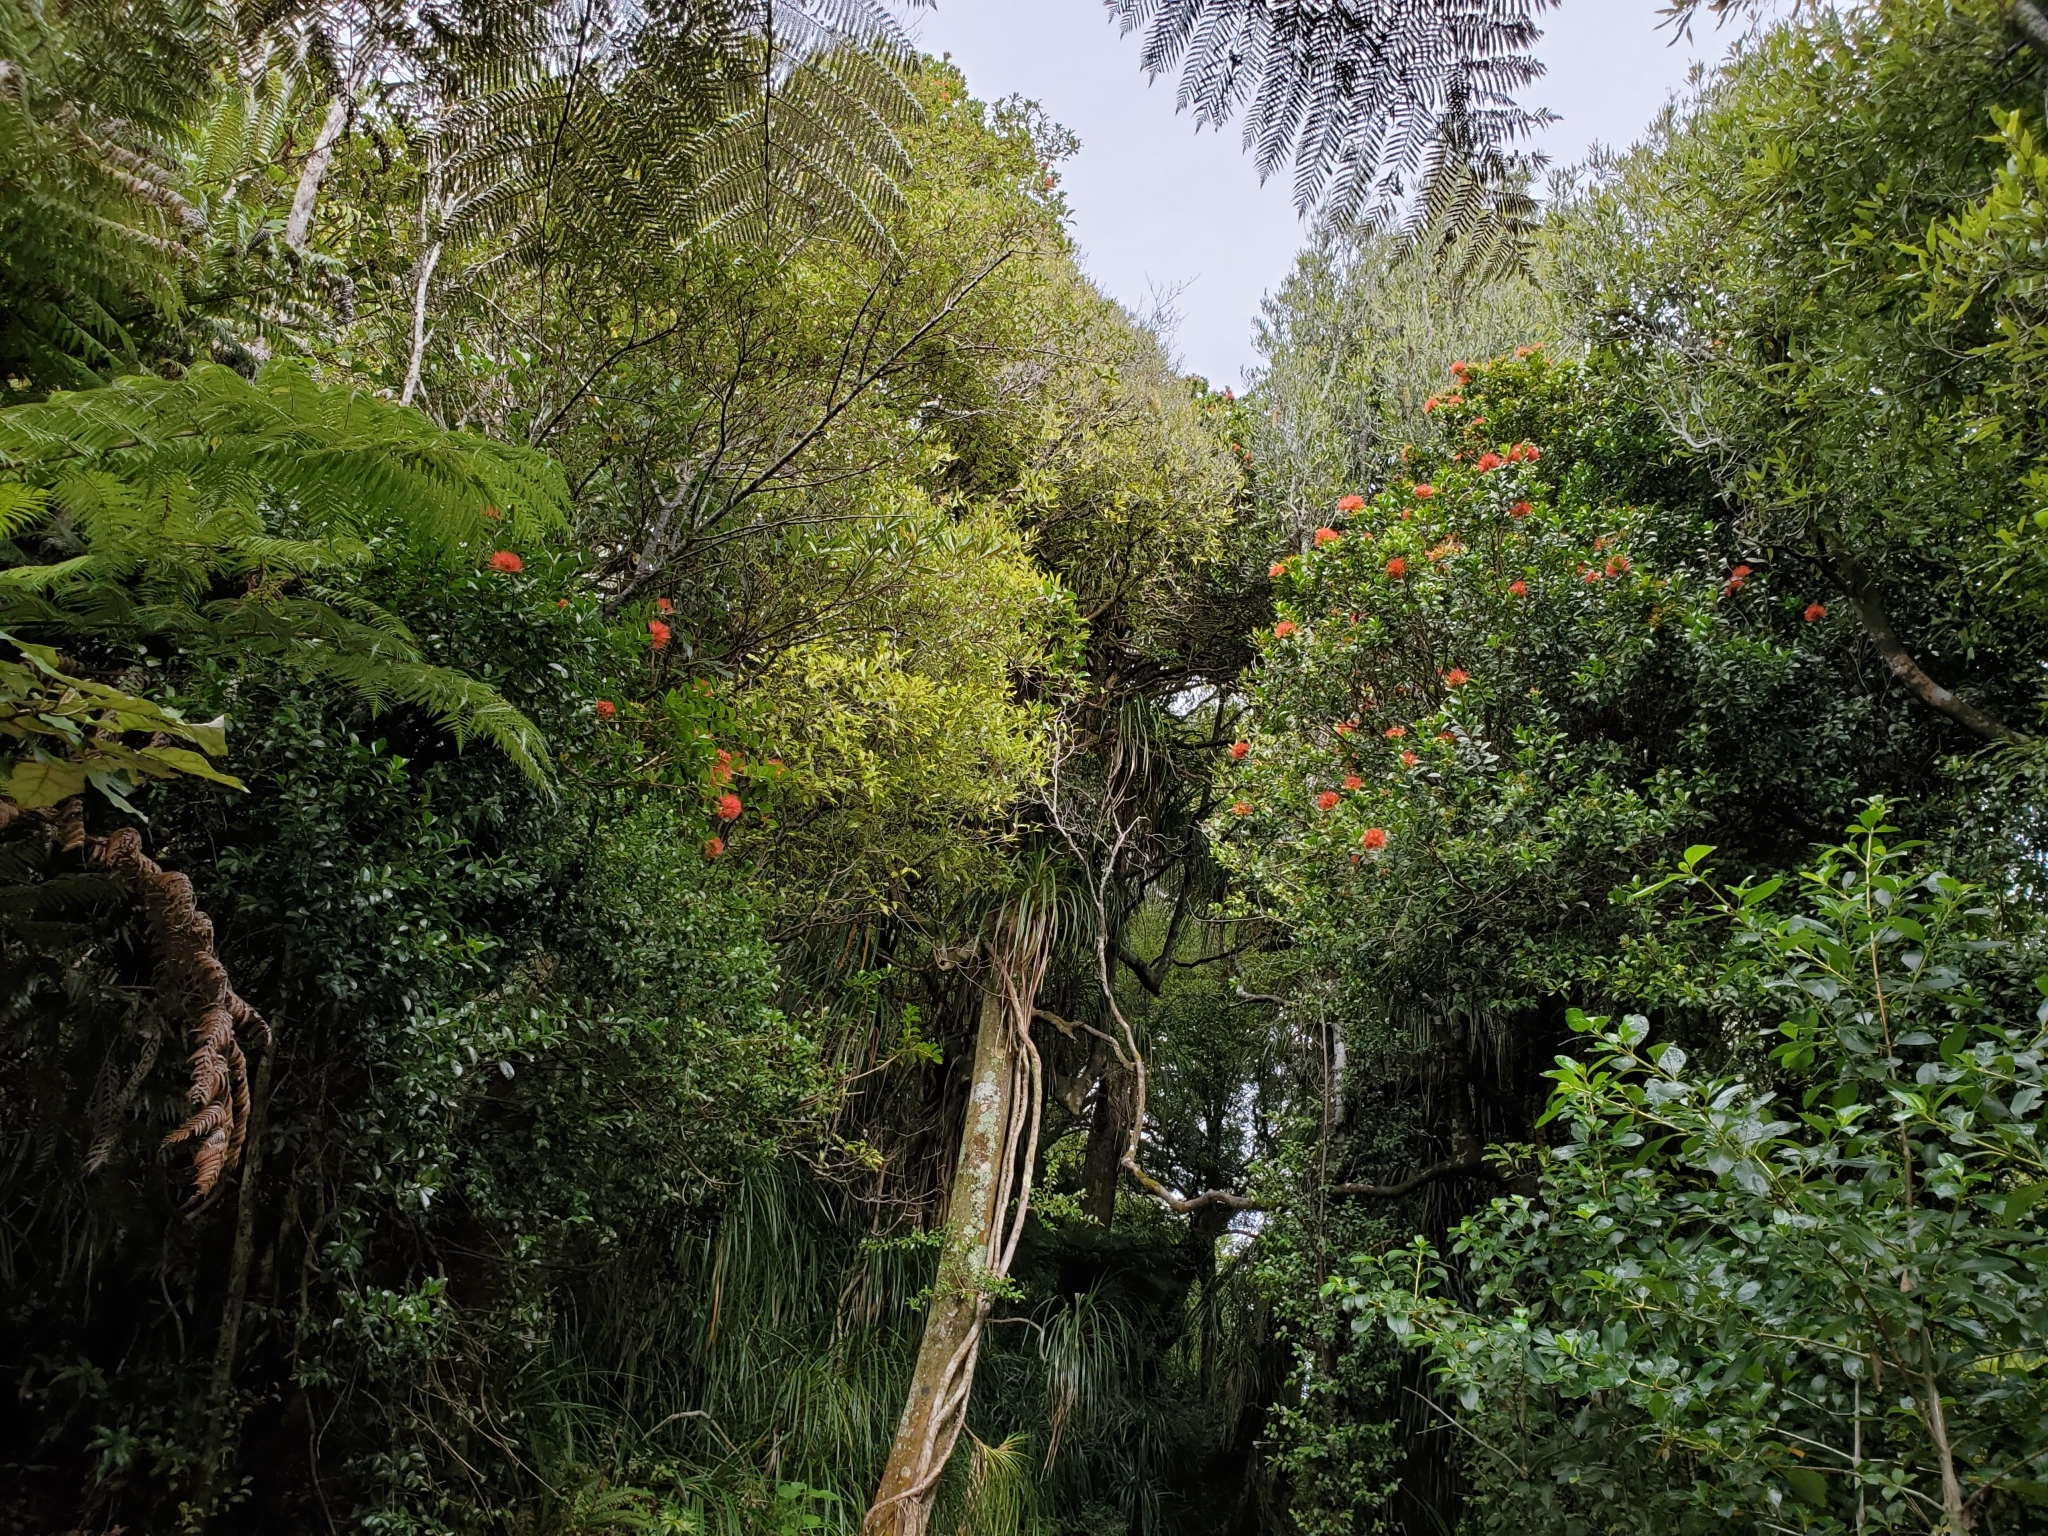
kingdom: Plantae
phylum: Tracheophyta
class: Magnoliopsida
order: Myrtales
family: Myrtaceae
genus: Metrosideros
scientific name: Metrosideros fulgens
